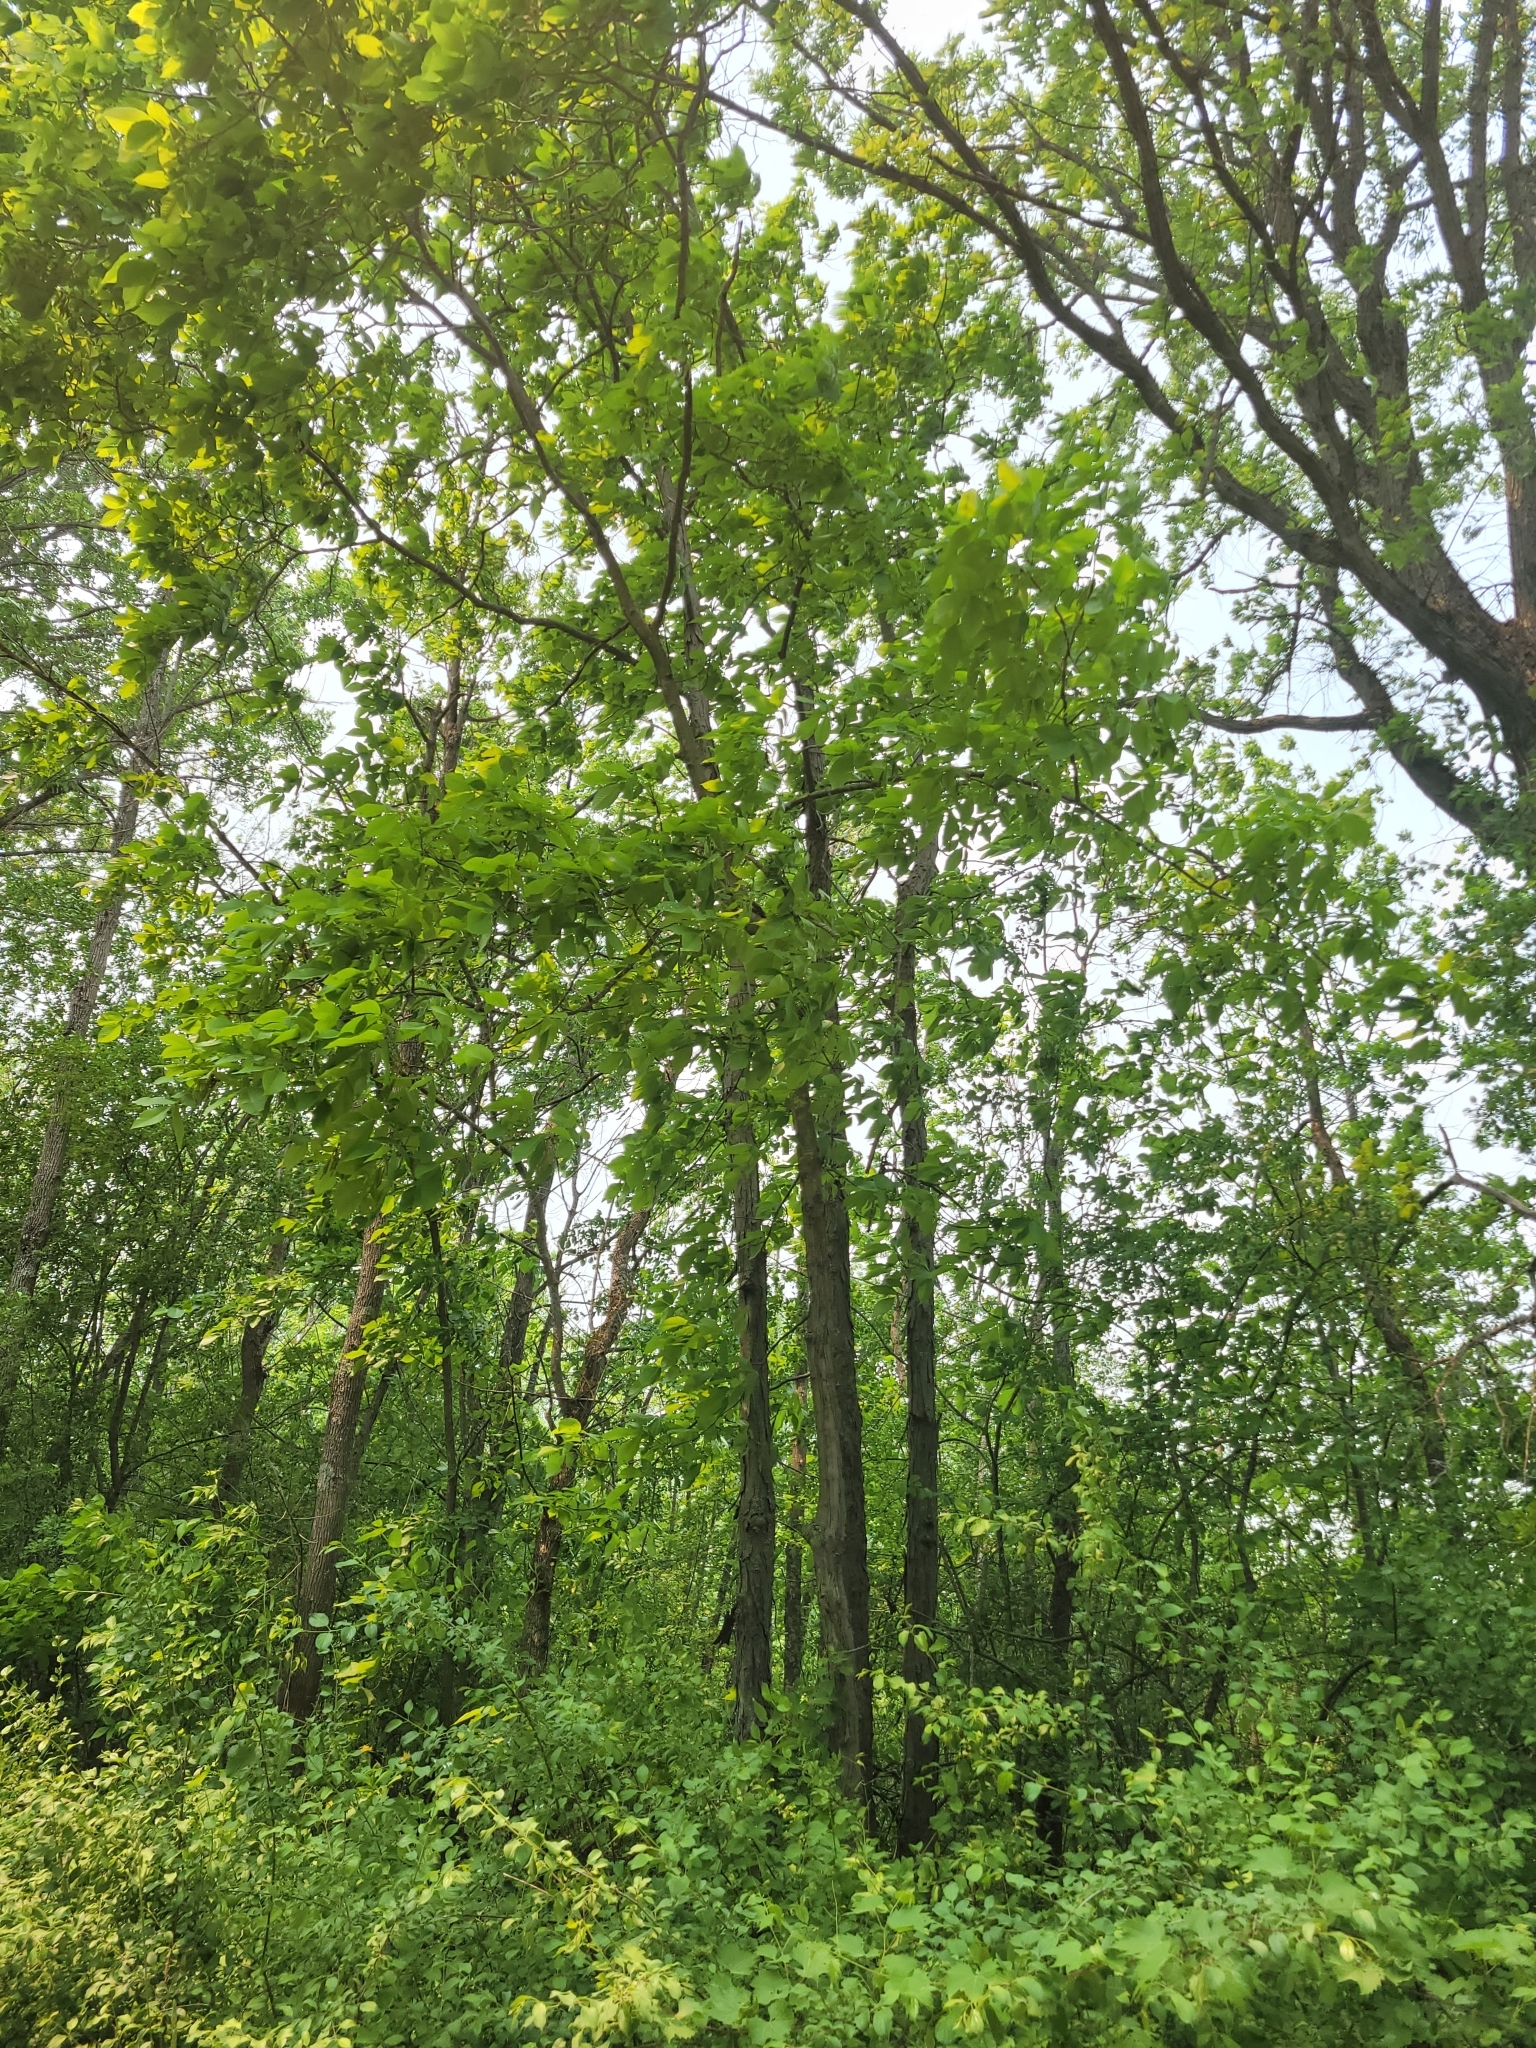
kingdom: Plantae
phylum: Tracheophyta
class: Magnoliopsida
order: Fagales
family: Juglandaceae
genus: Carya
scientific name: Carya ovata
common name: Shagbark hickory
